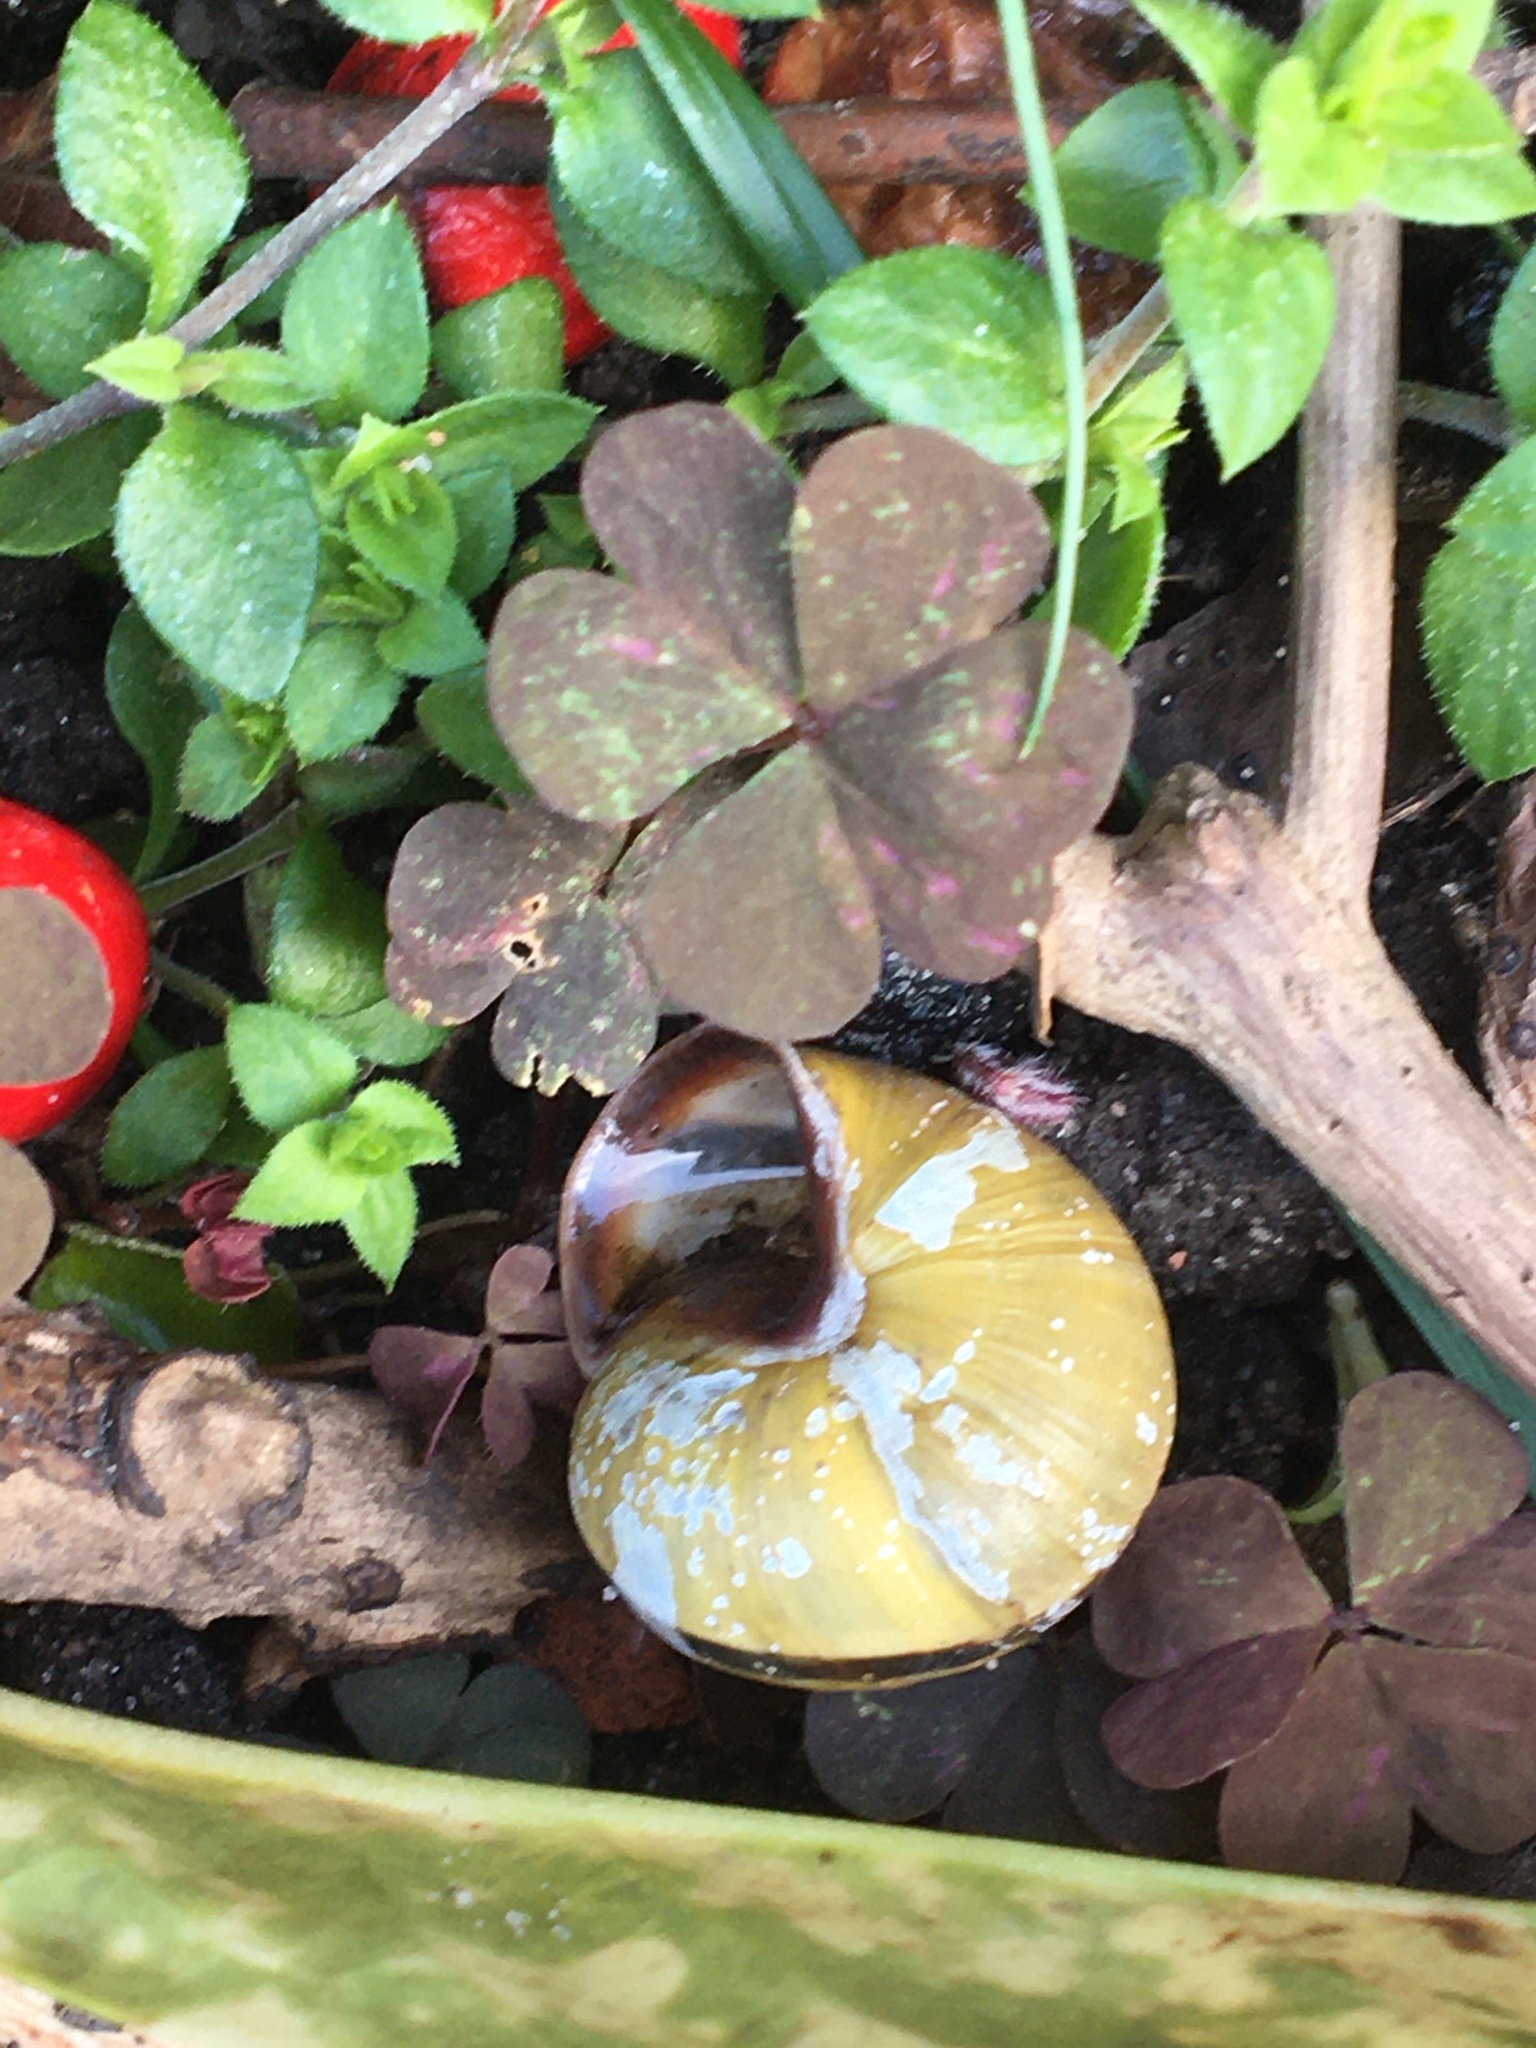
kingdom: Animalia
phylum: Mollusca
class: Gastropoda
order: Stylommatophora
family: Helicidae
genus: Cepaea
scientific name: Cepaea nemoralis
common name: Grovesnail
